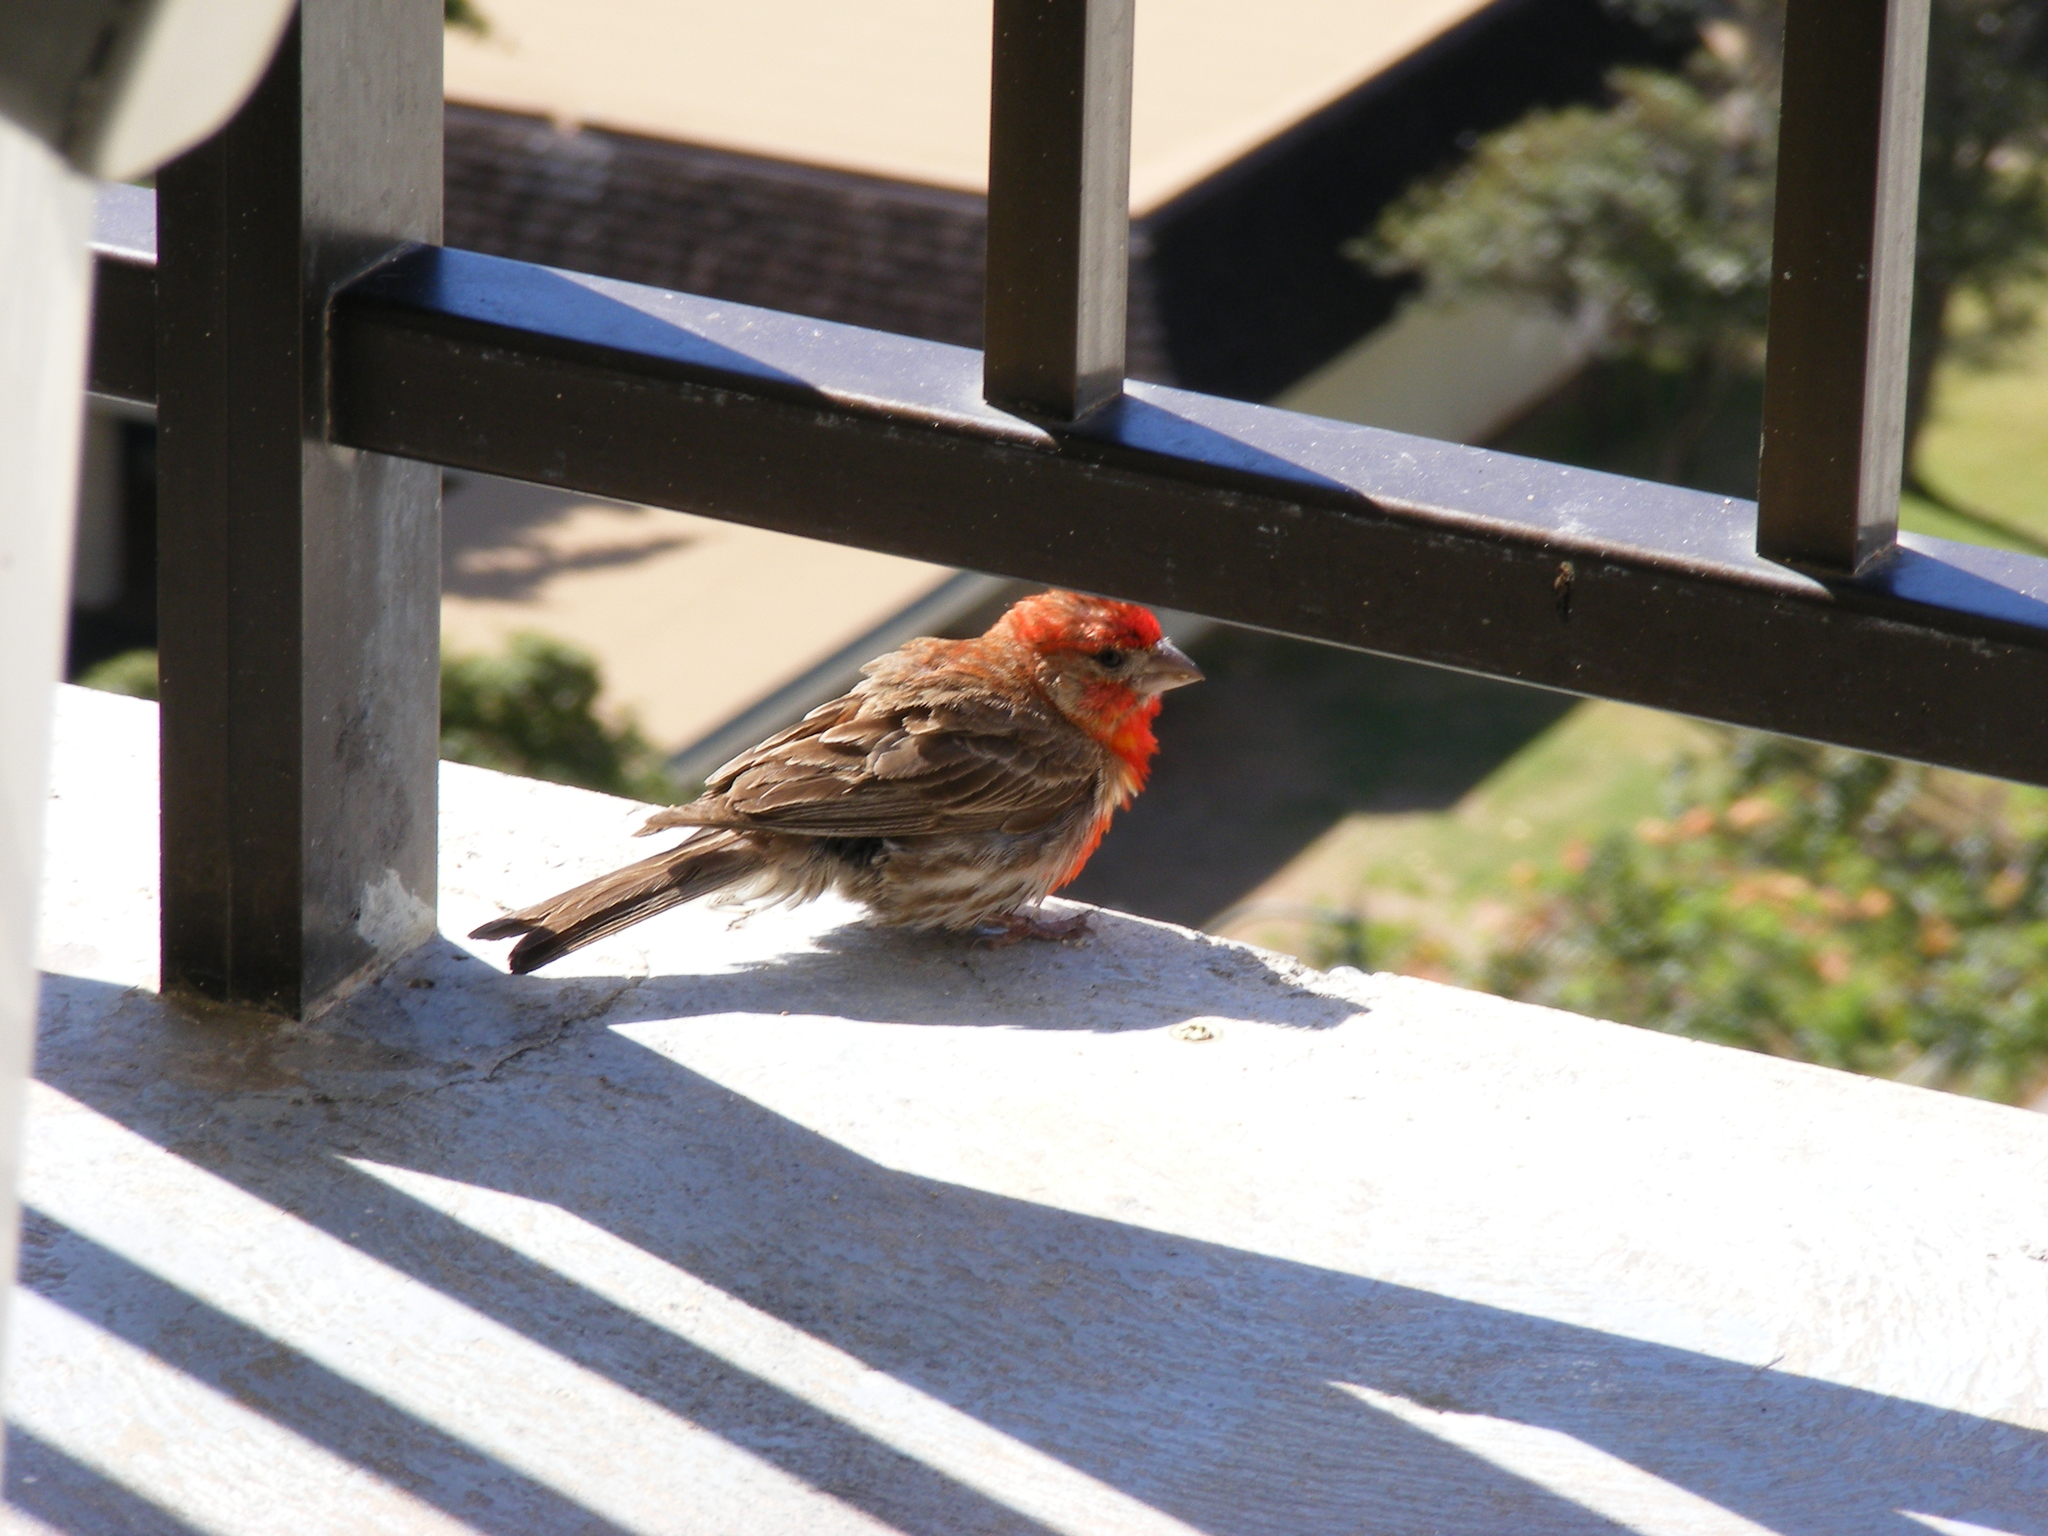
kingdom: Animalia
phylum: Chordata
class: Aves
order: Passeriformes
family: Fringillidae
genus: Haemorhous
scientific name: Haemorhous mexicanus
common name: House finch
